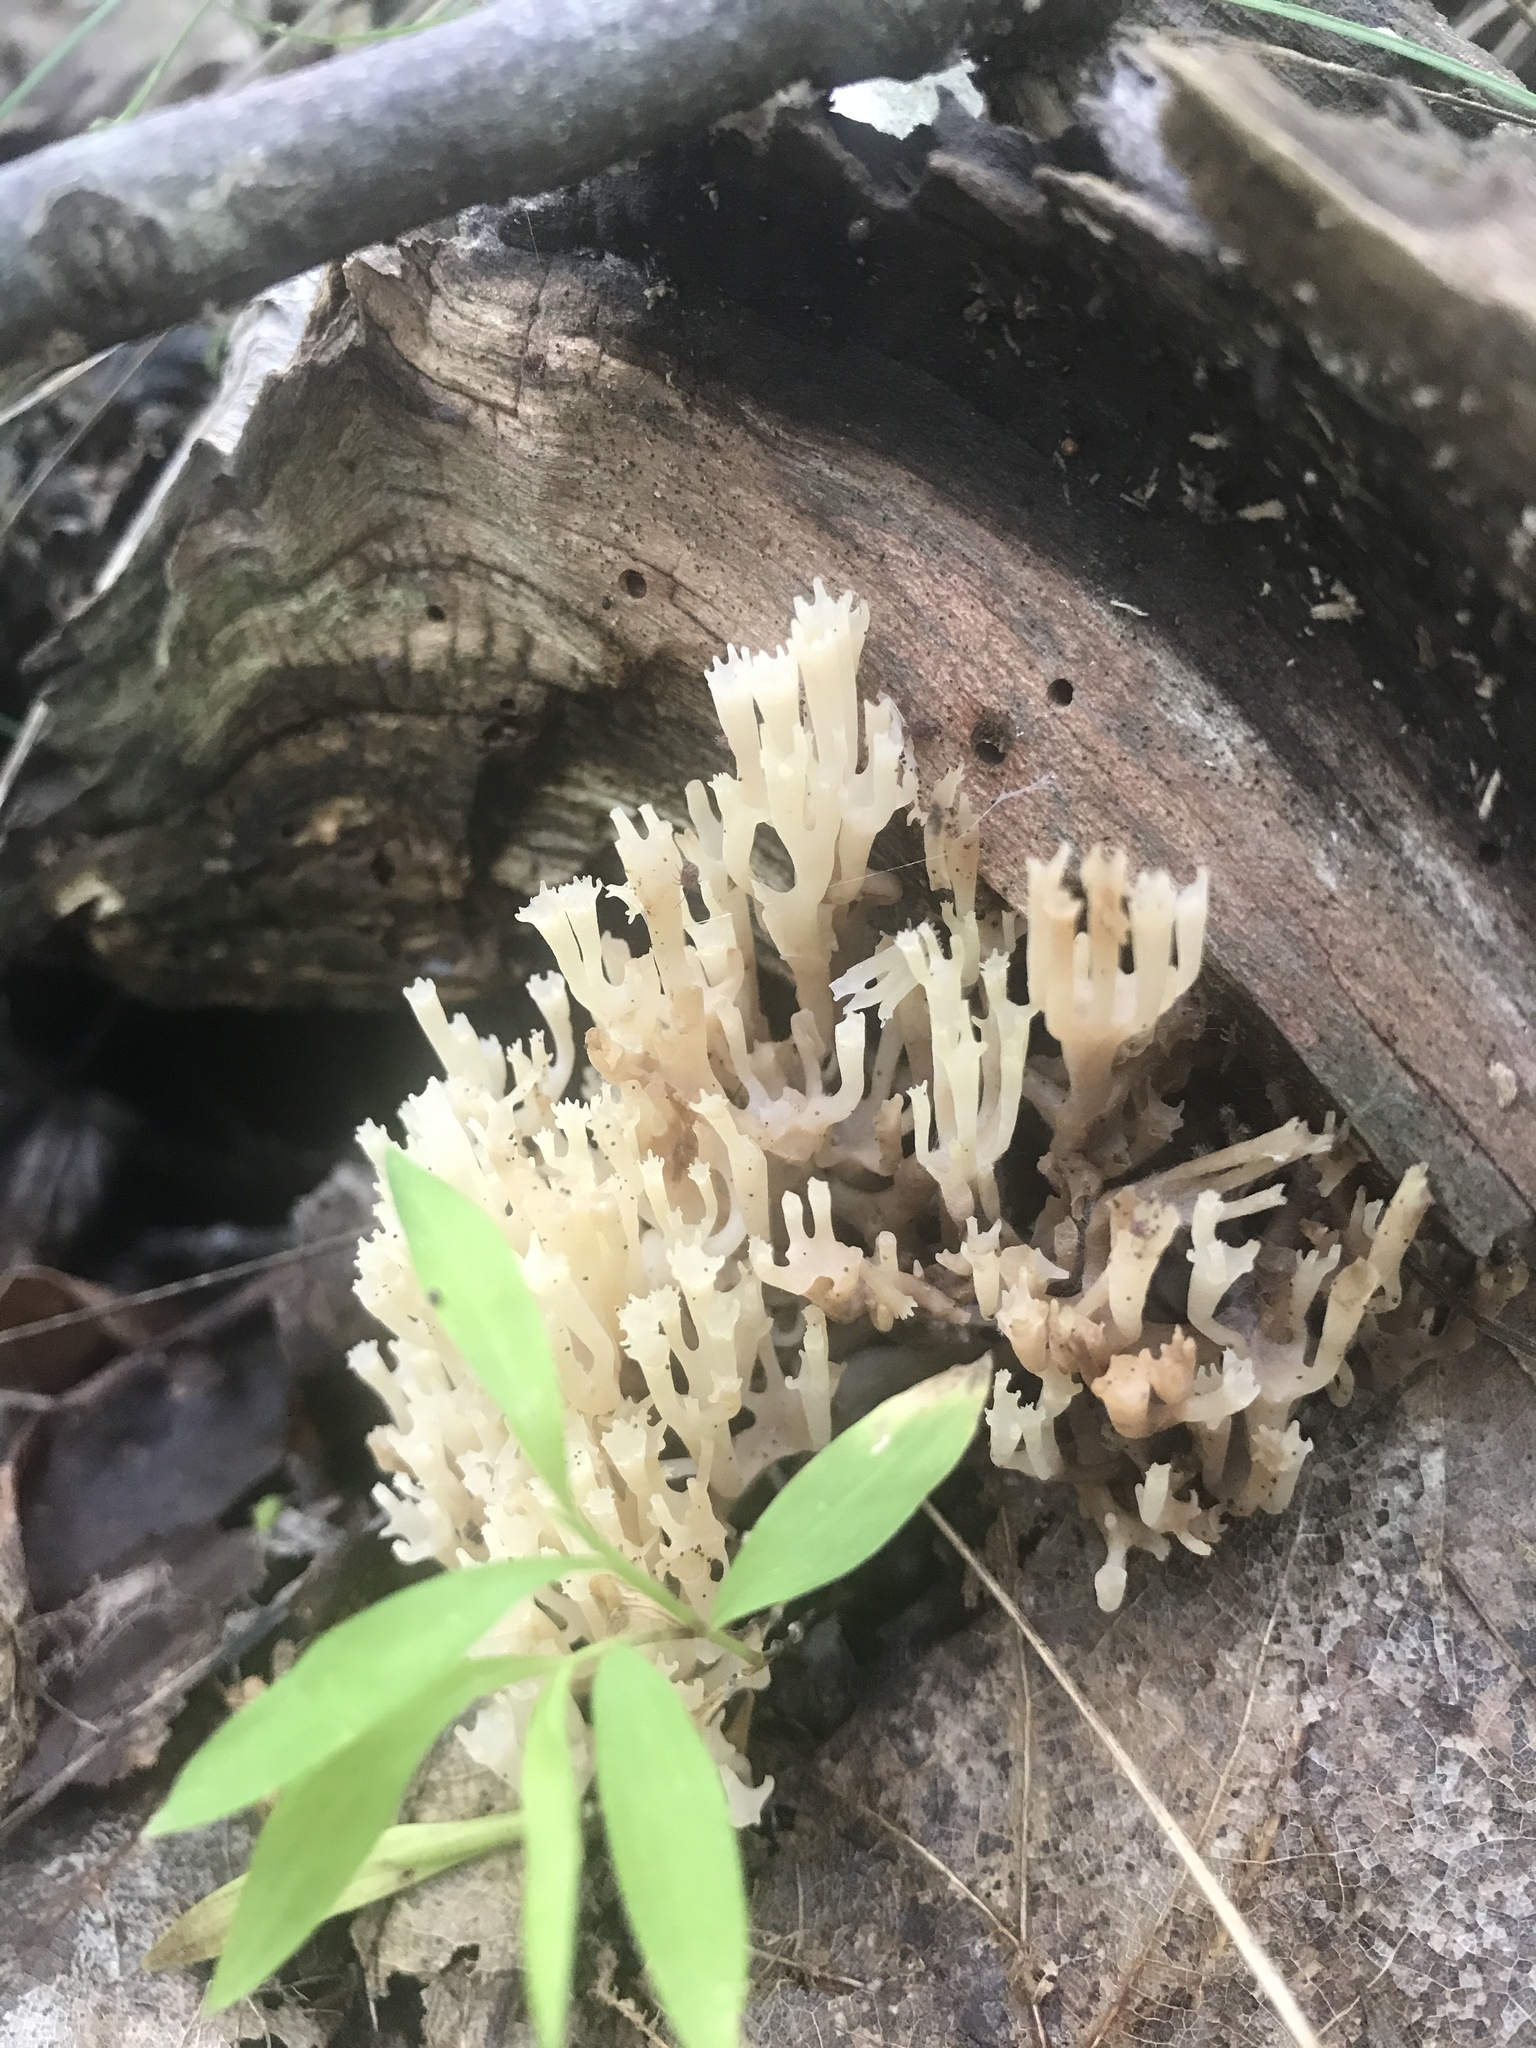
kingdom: Fungi
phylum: Basidiomycota
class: Agaricomycetes
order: Russulales
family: Auriscalpiaceae
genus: Artomyces
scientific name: Artomyces pyxidatus
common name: Crown-tipped coral fungus
